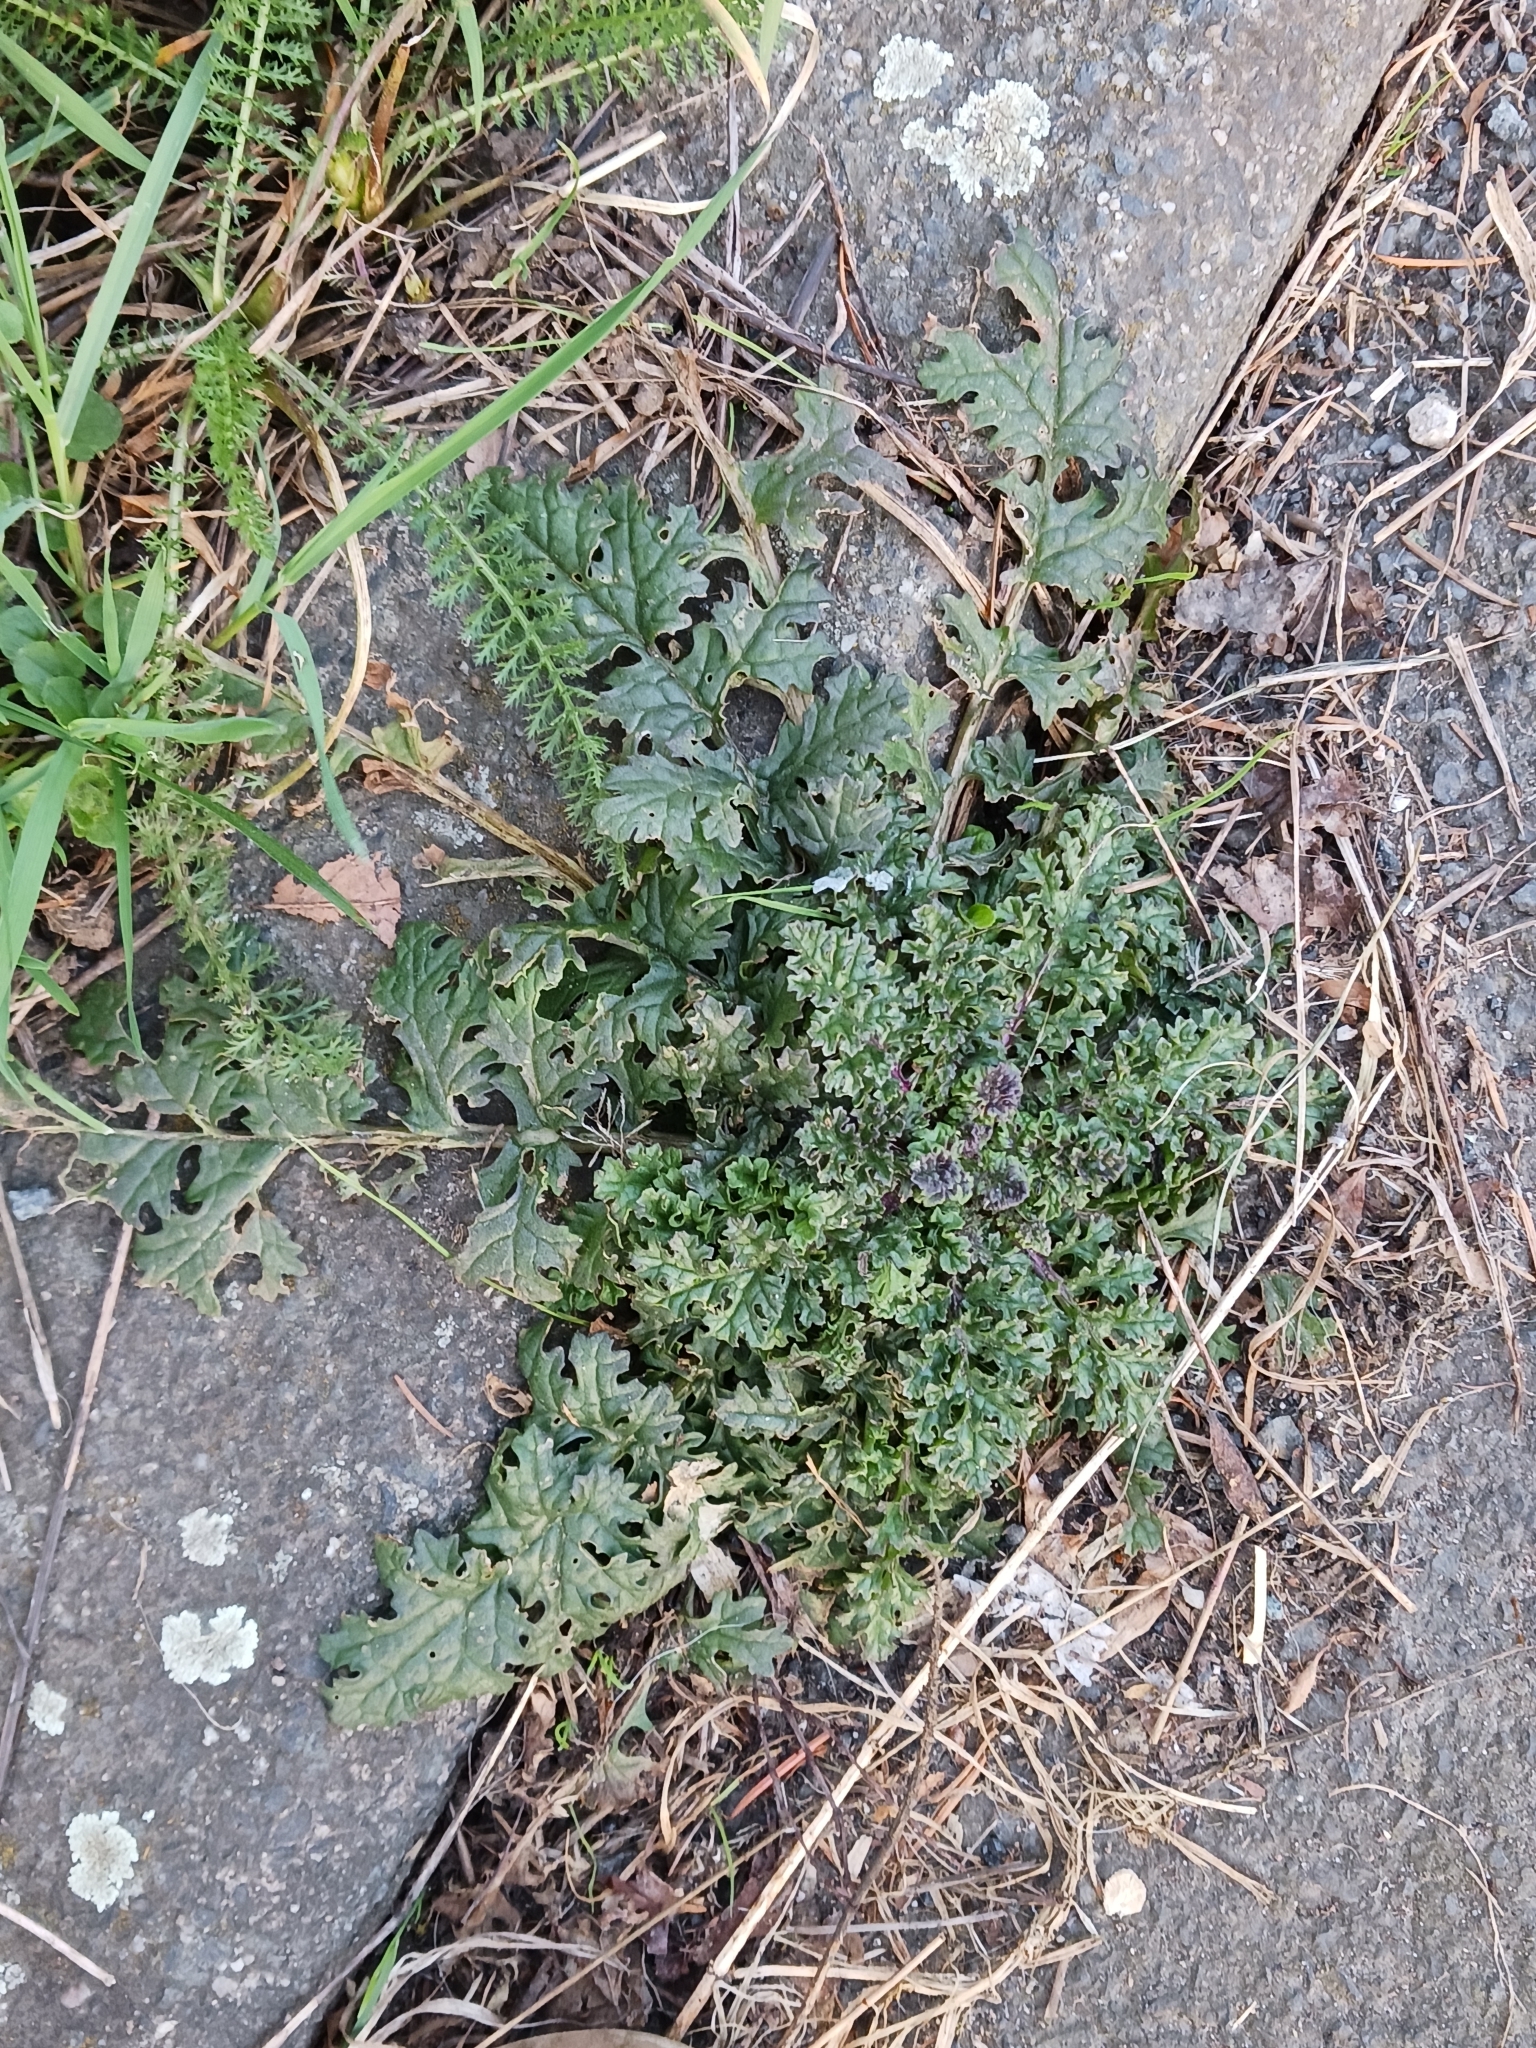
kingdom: Plantae
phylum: Tracheophyta
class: Magnoliopsida
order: Asterales
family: Asteraceae
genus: Jacobaea
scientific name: Jacobaea vulgaris
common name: Stinking willie
